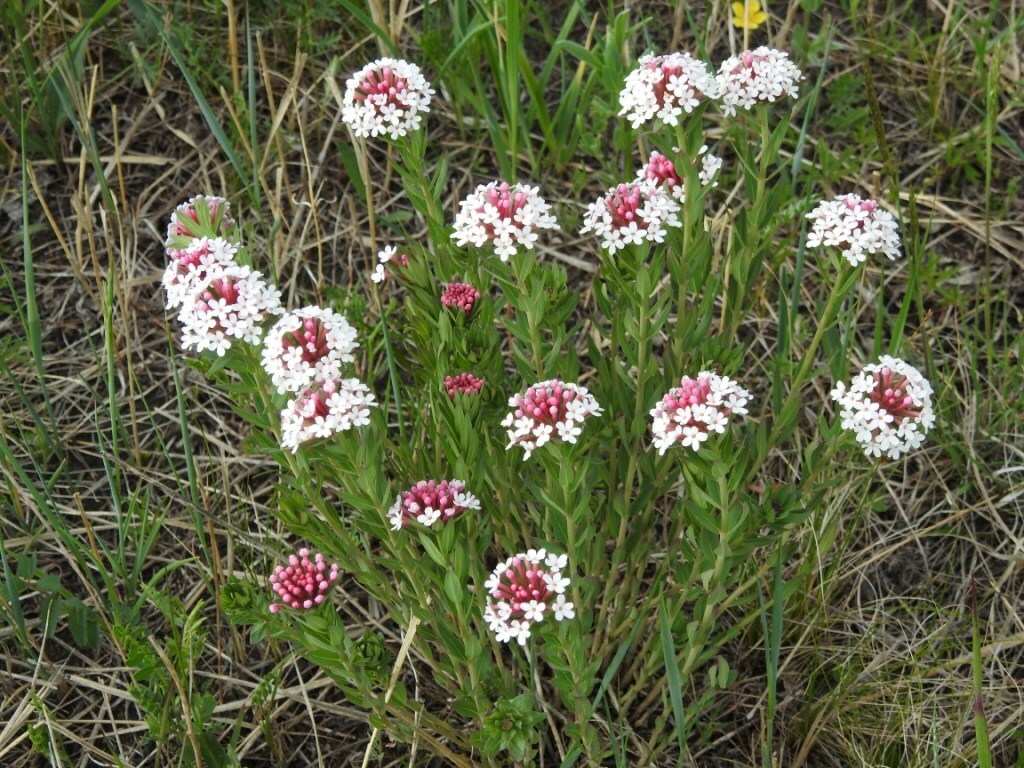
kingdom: Plantae
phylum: Tracheophyta
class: Magnoliopsida
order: Malvales
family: Thymelaeaceae
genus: Stellera
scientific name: Stellera chamaejasme
